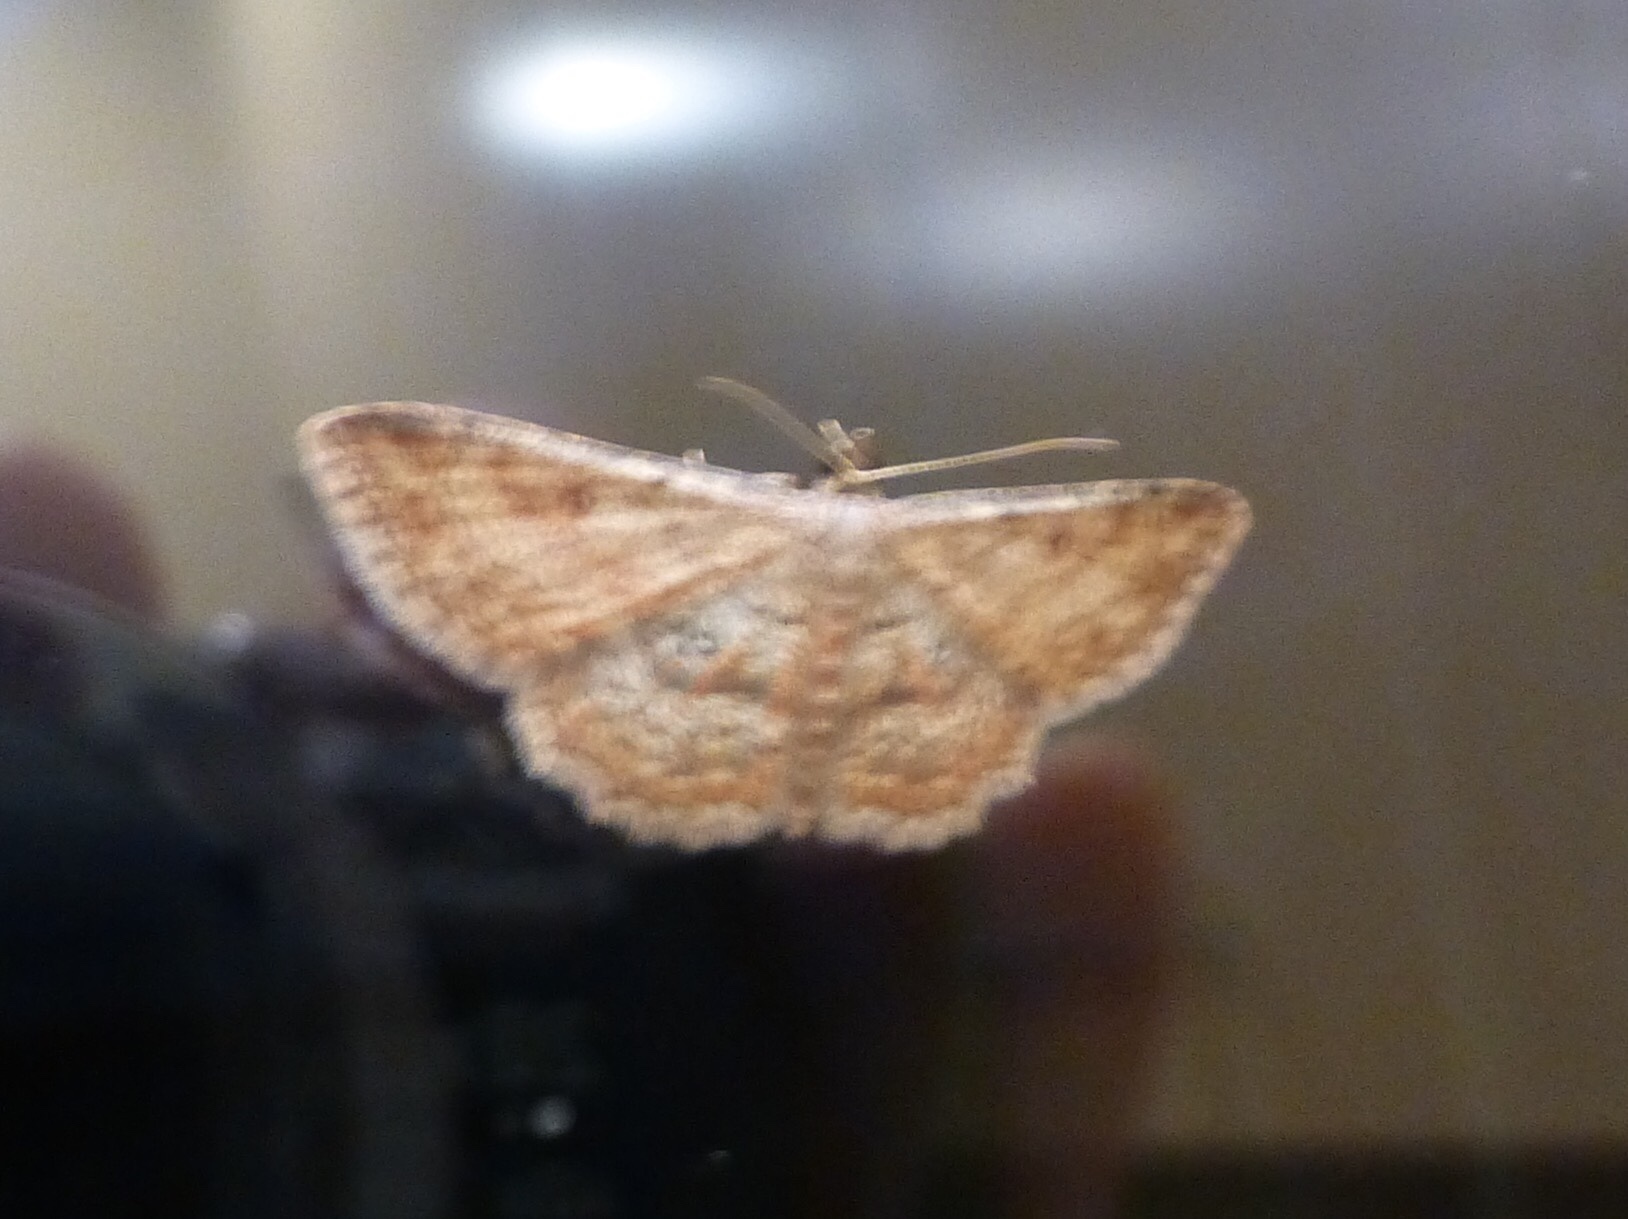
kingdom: Animalia
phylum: Arthropoda
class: Insecta
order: Lepidoptera
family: Geometridae
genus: Cyclophora
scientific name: Cyclophora nanaria
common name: Cankerworm
